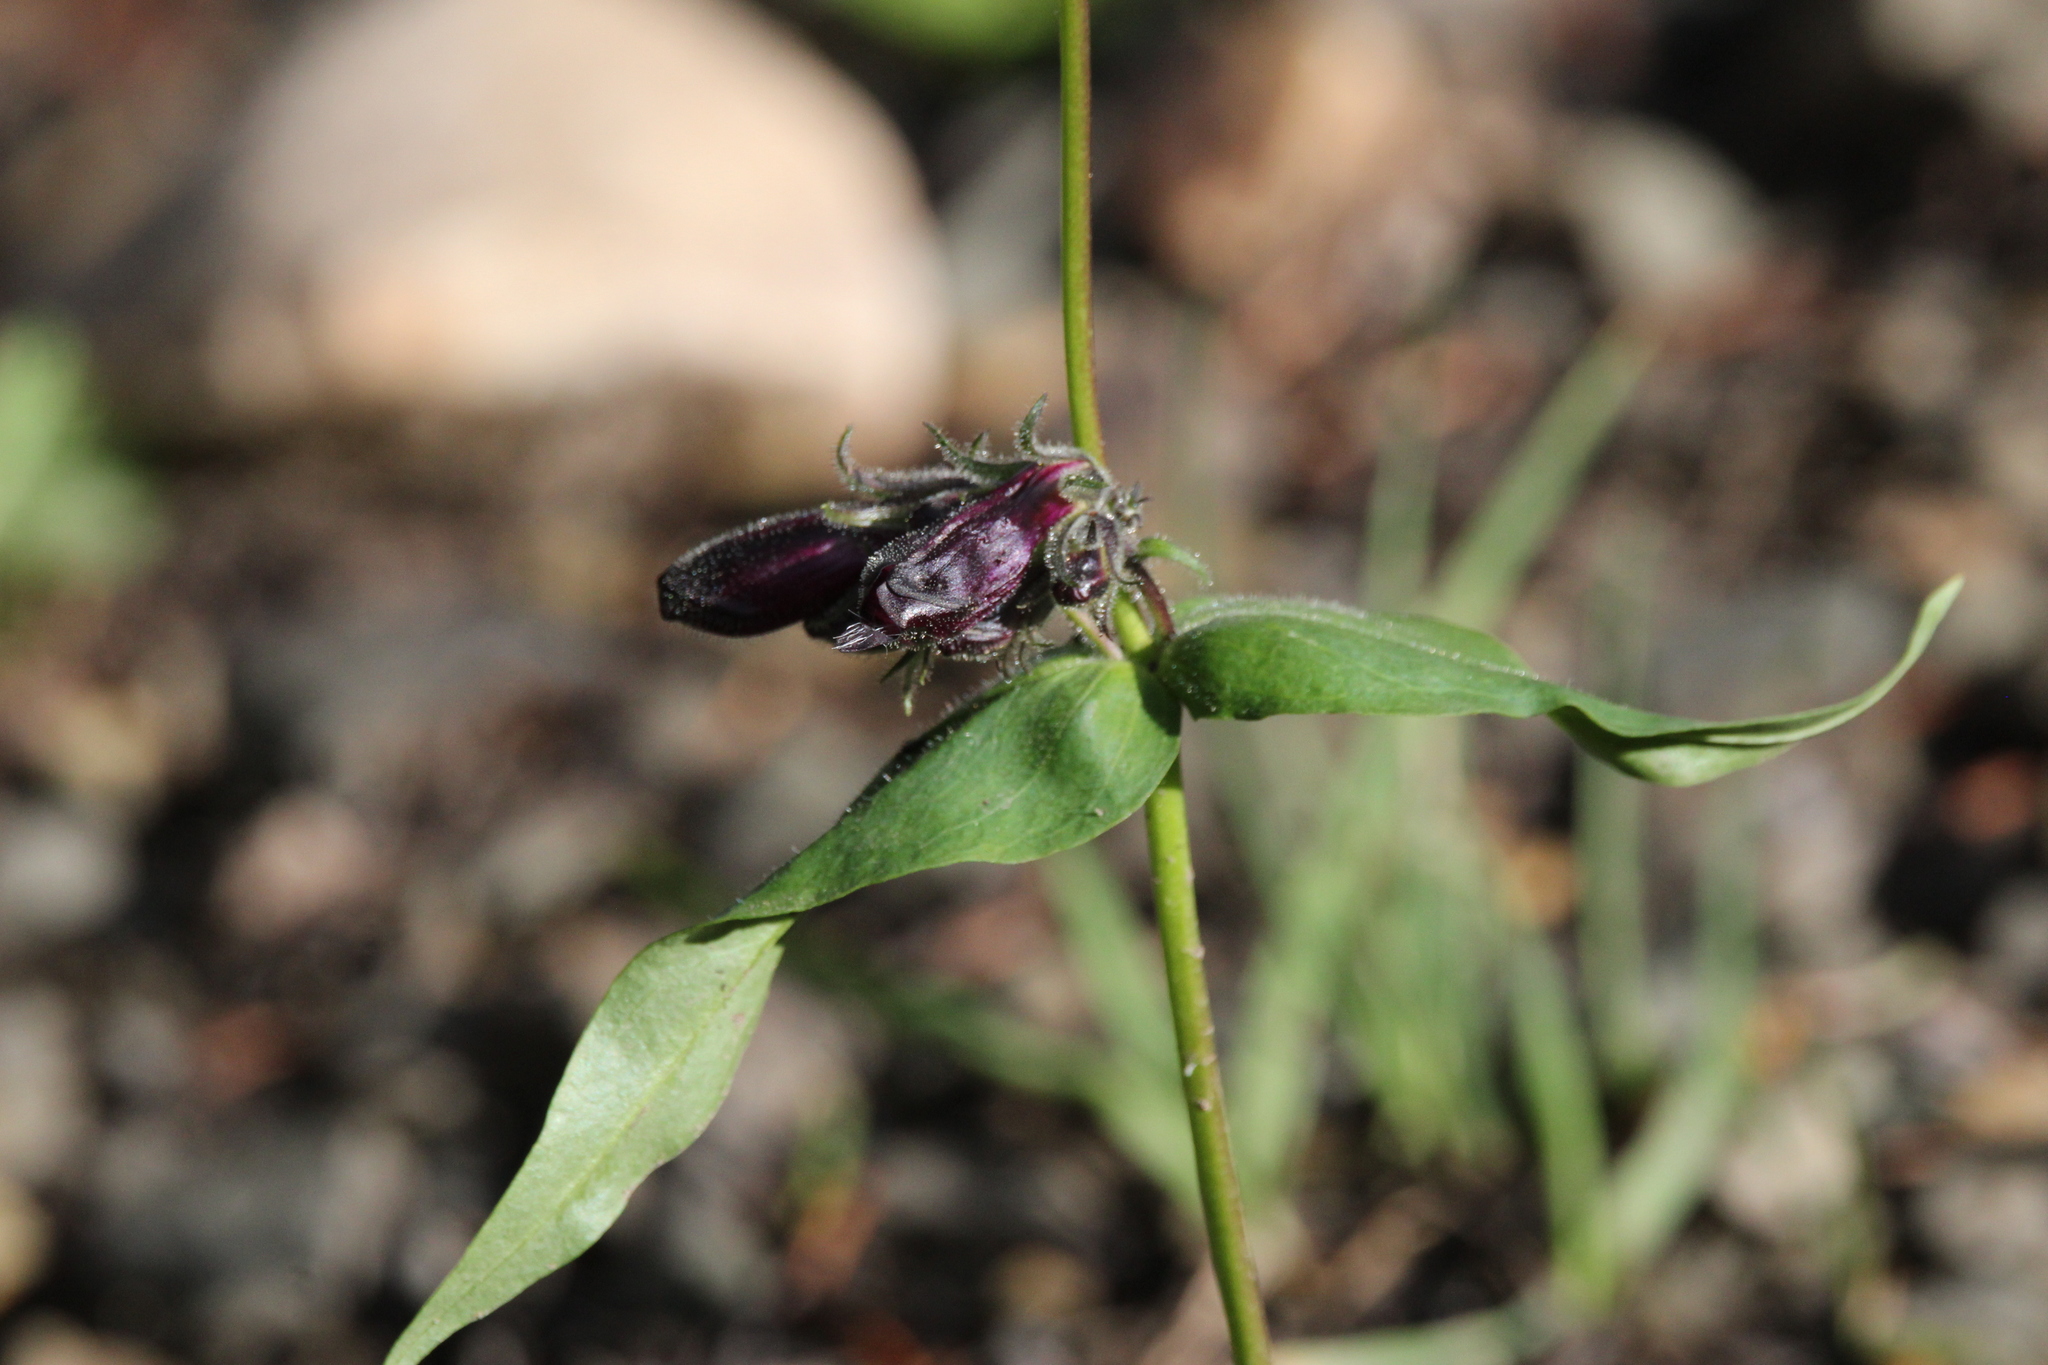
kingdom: Plantae
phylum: Tracheophyta
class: Magnoliopsida
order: Lamiales
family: Plantaginaceae
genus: Penstemon
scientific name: Penstemon whippleanus
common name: Whipple's penstemon
